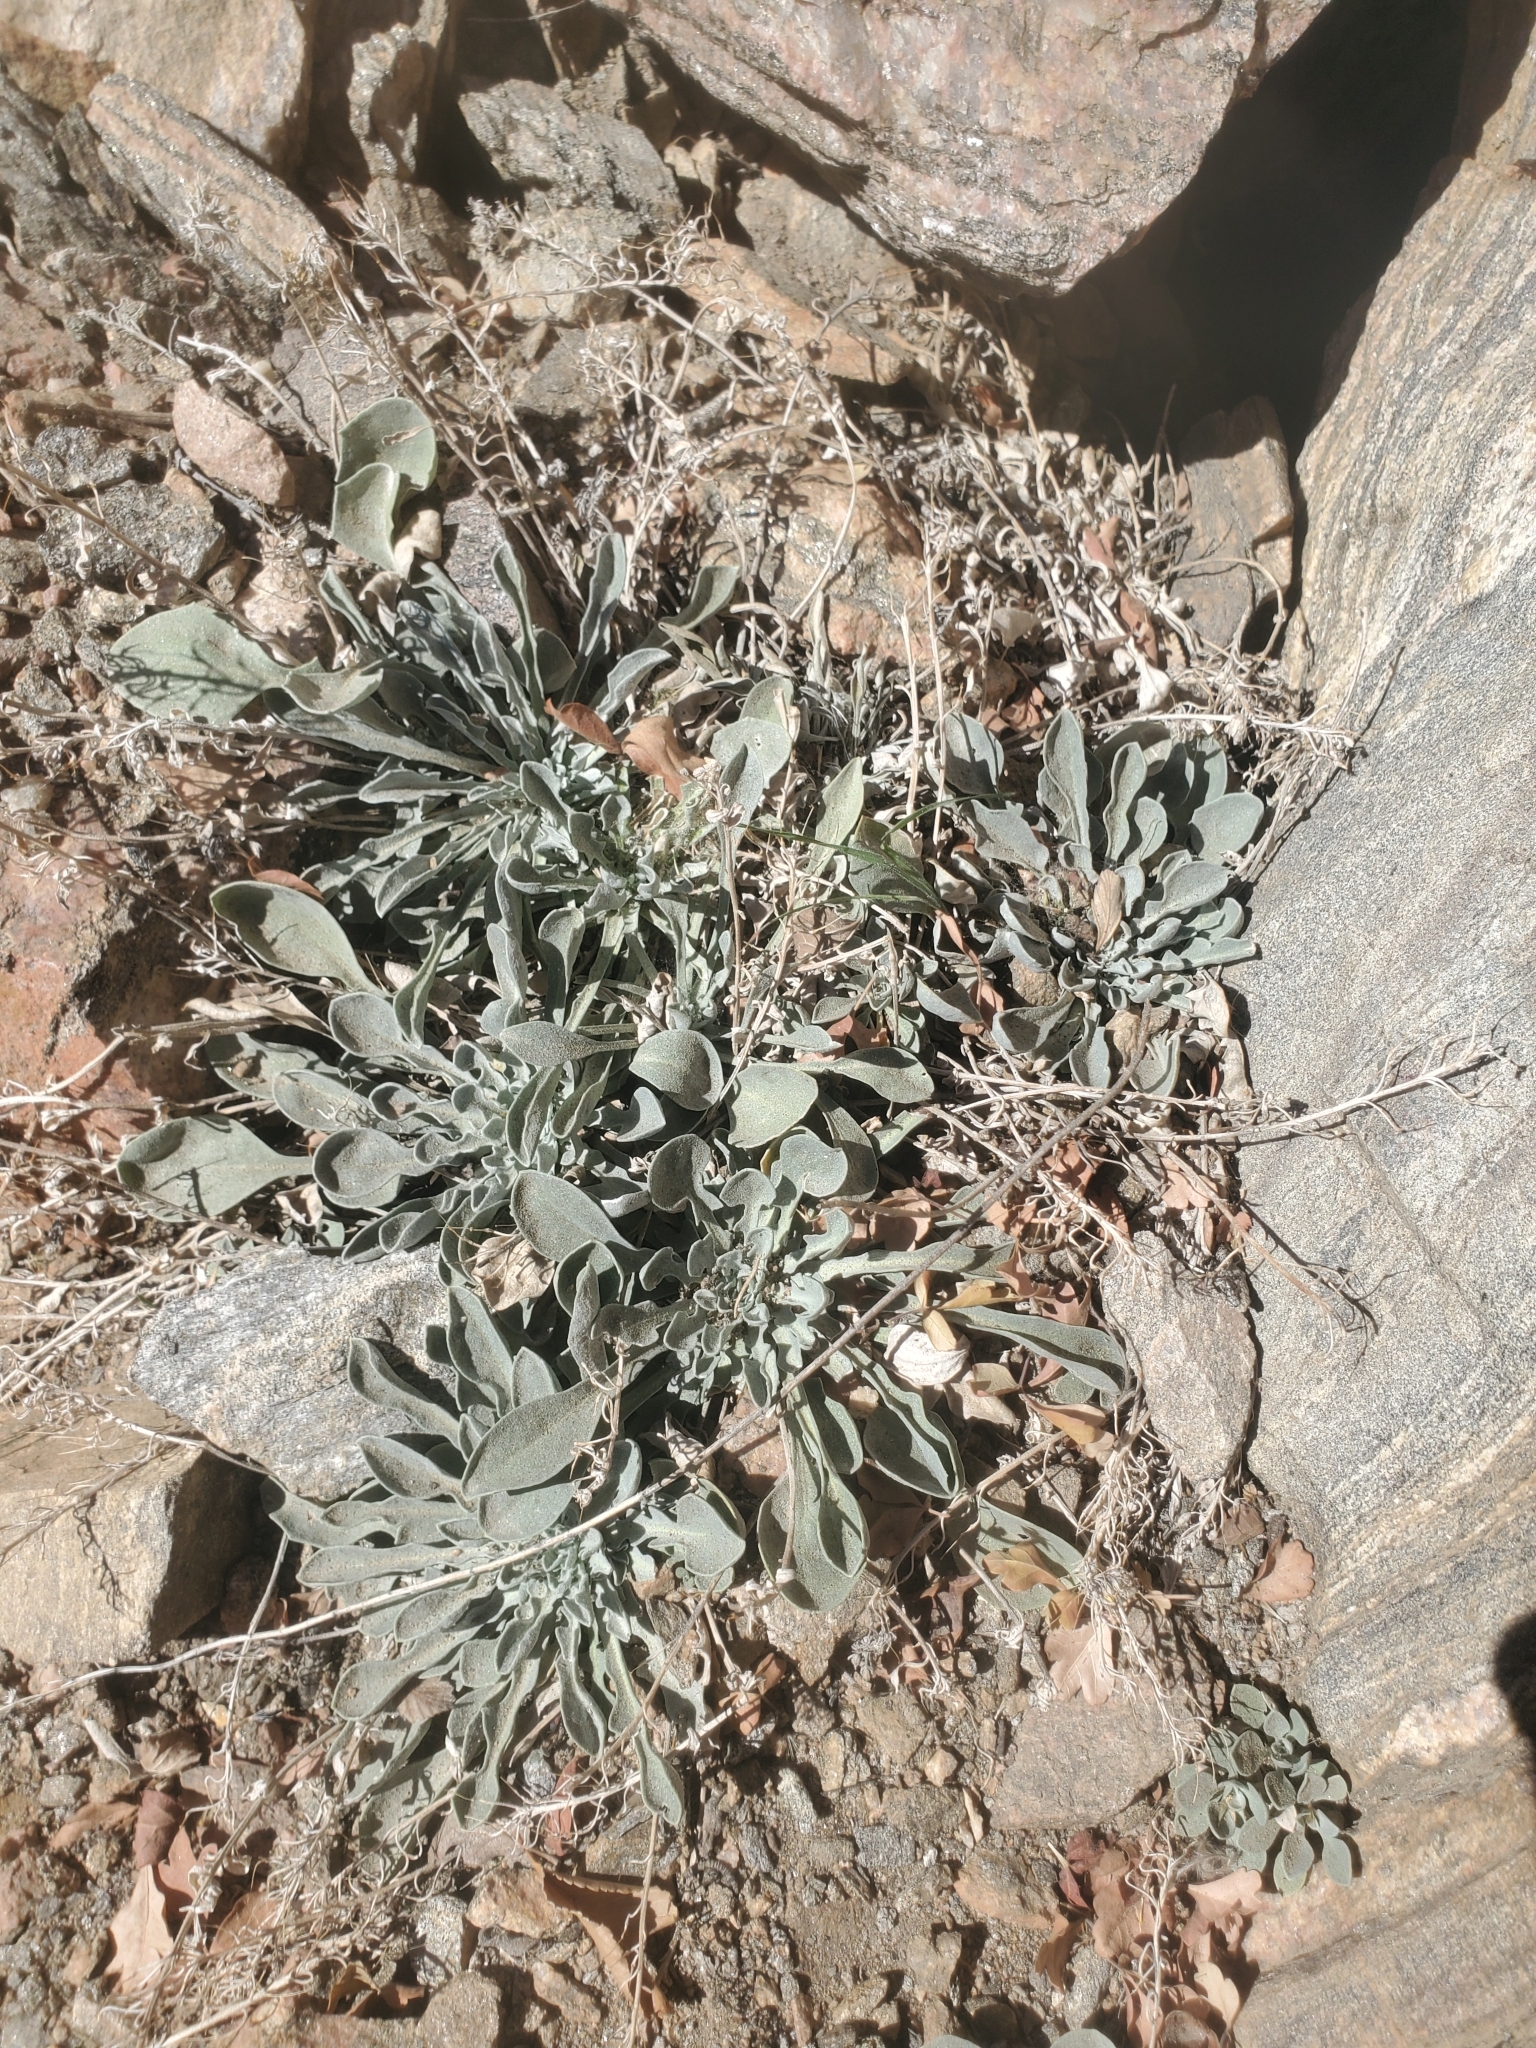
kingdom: Plantae
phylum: Tracheophyta
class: Magnoliopsida
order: Brassicales
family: Brassicaceae
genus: Physaria
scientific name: Physaria vitulifera
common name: Roundtrip twinpod
